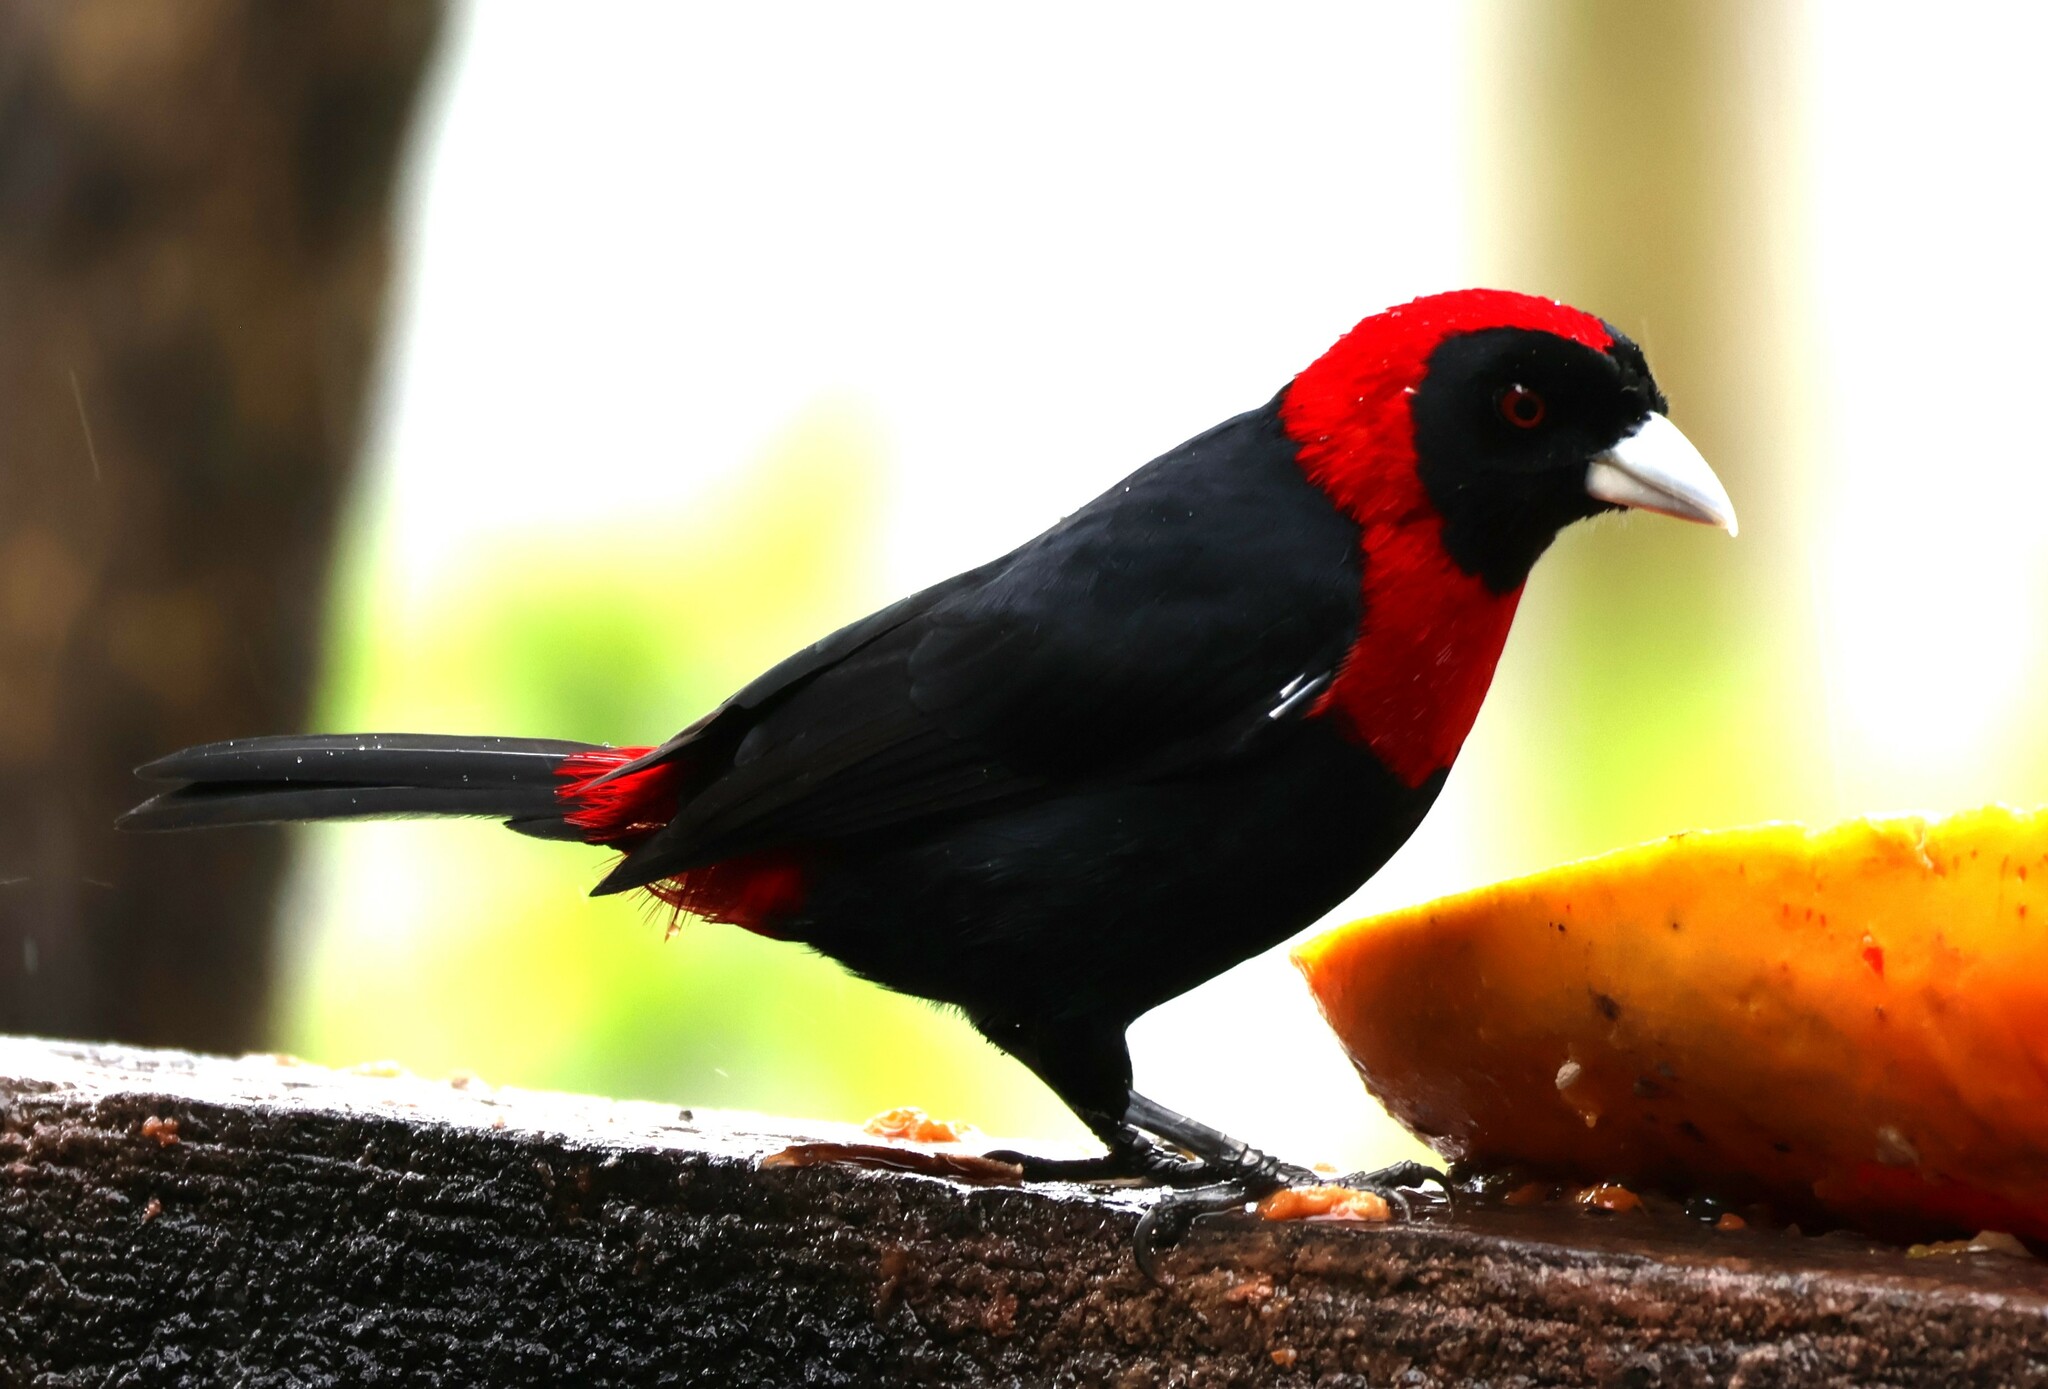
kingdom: Animalia
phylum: Chordata
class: Aves
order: Passeriformes
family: Thraupidae
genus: Ramphocelus
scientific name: Ramphocelus sanguinolentus
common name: Crimson-collared tanager
